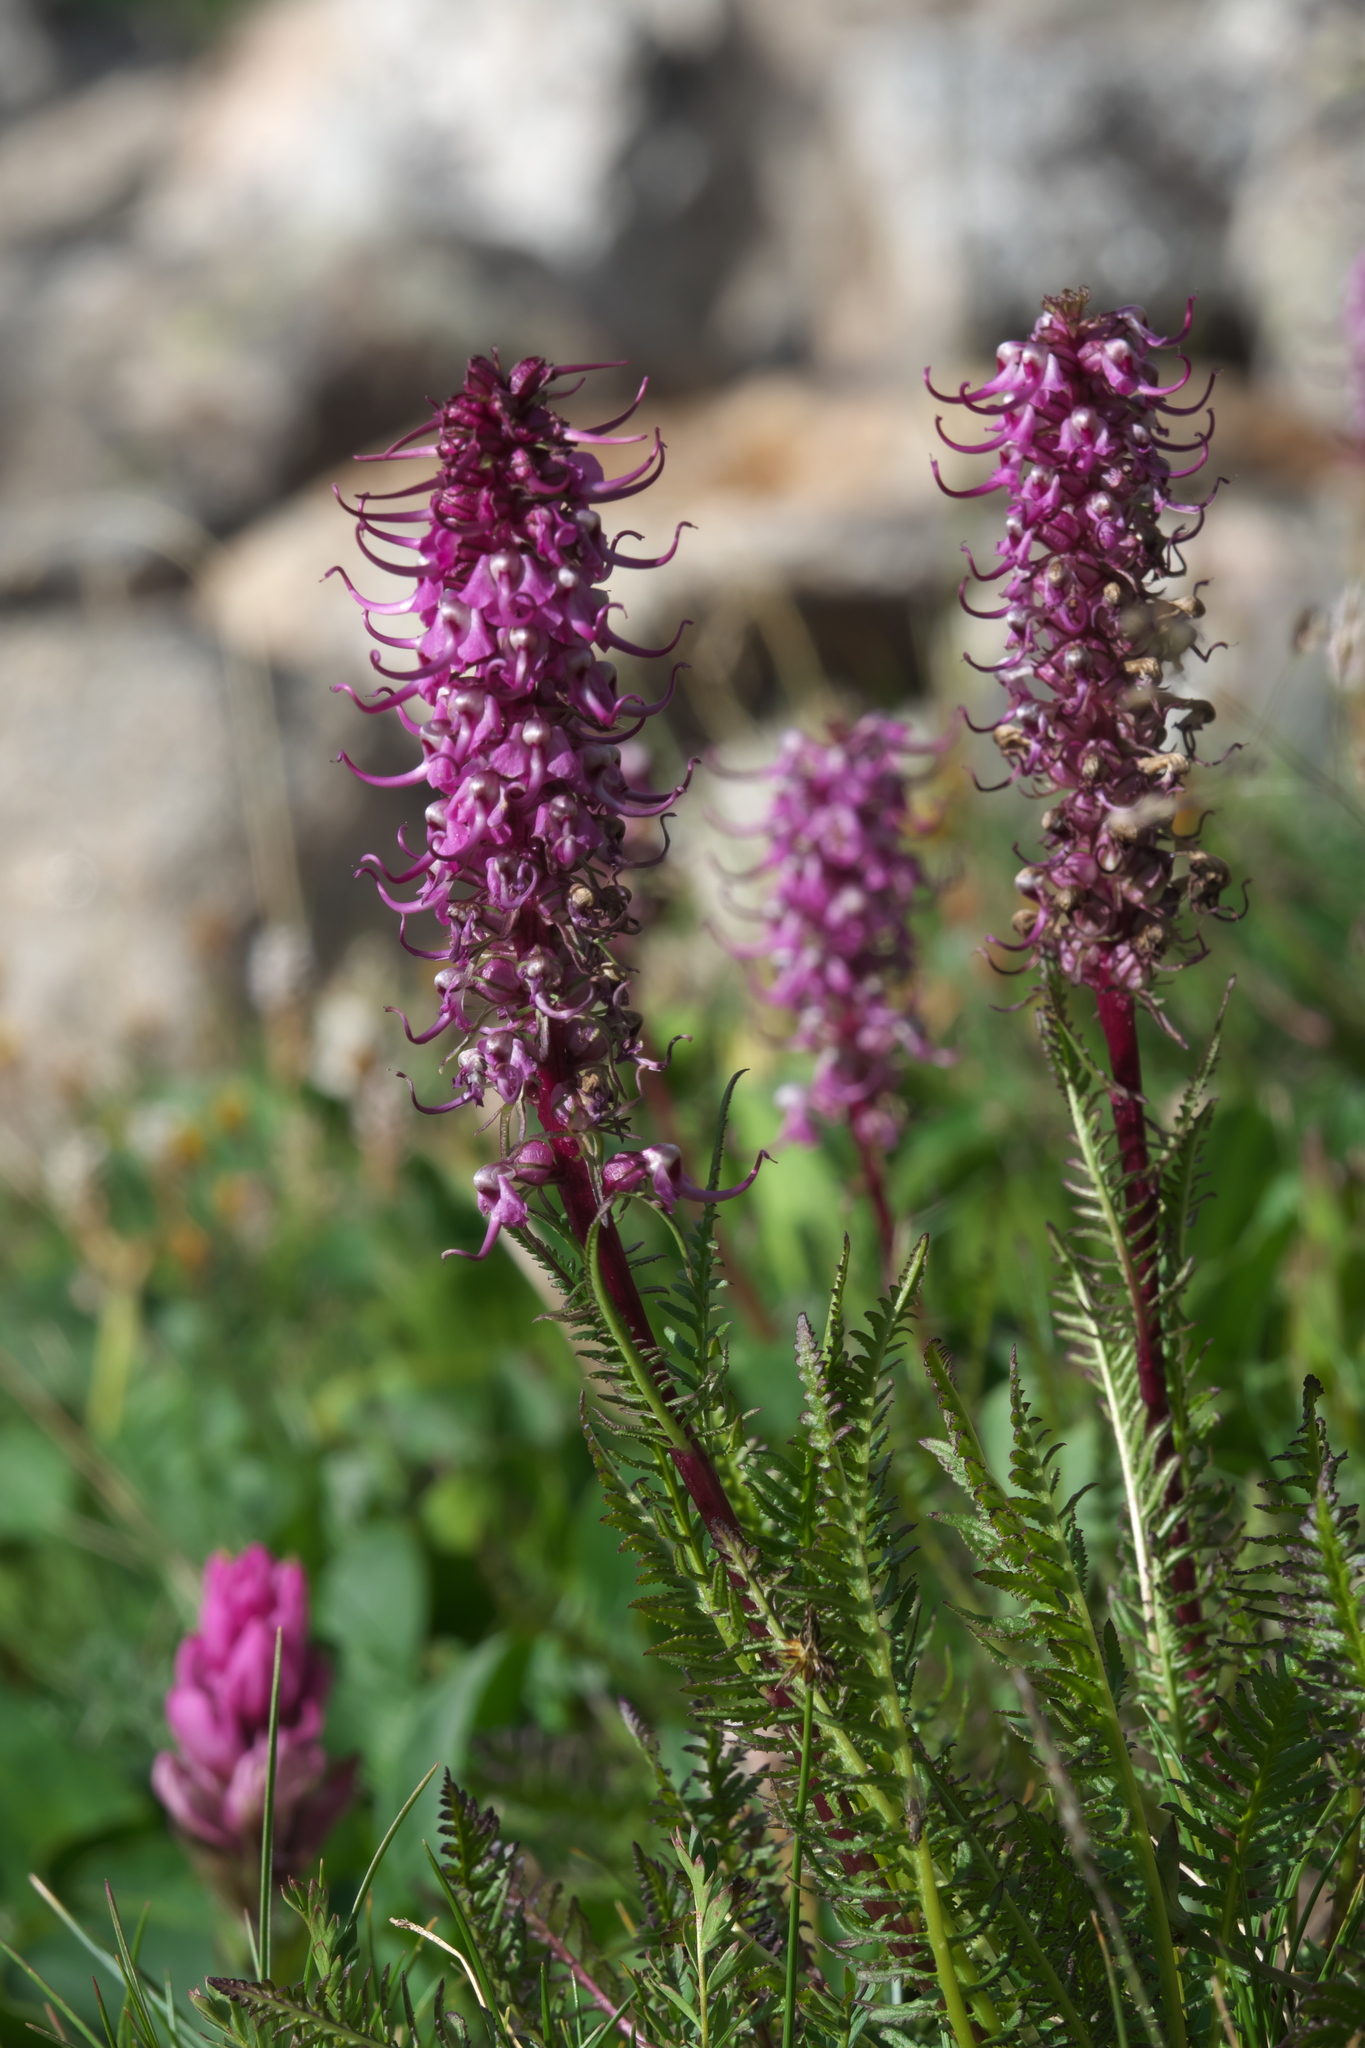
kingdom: Plantae
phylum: Tracheophyta
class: Magnoliopsida
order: Lamiales
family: Orobanchaceae
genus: Pedicularis
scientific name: Pedicularis groenlandica
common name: Elephant's-head
